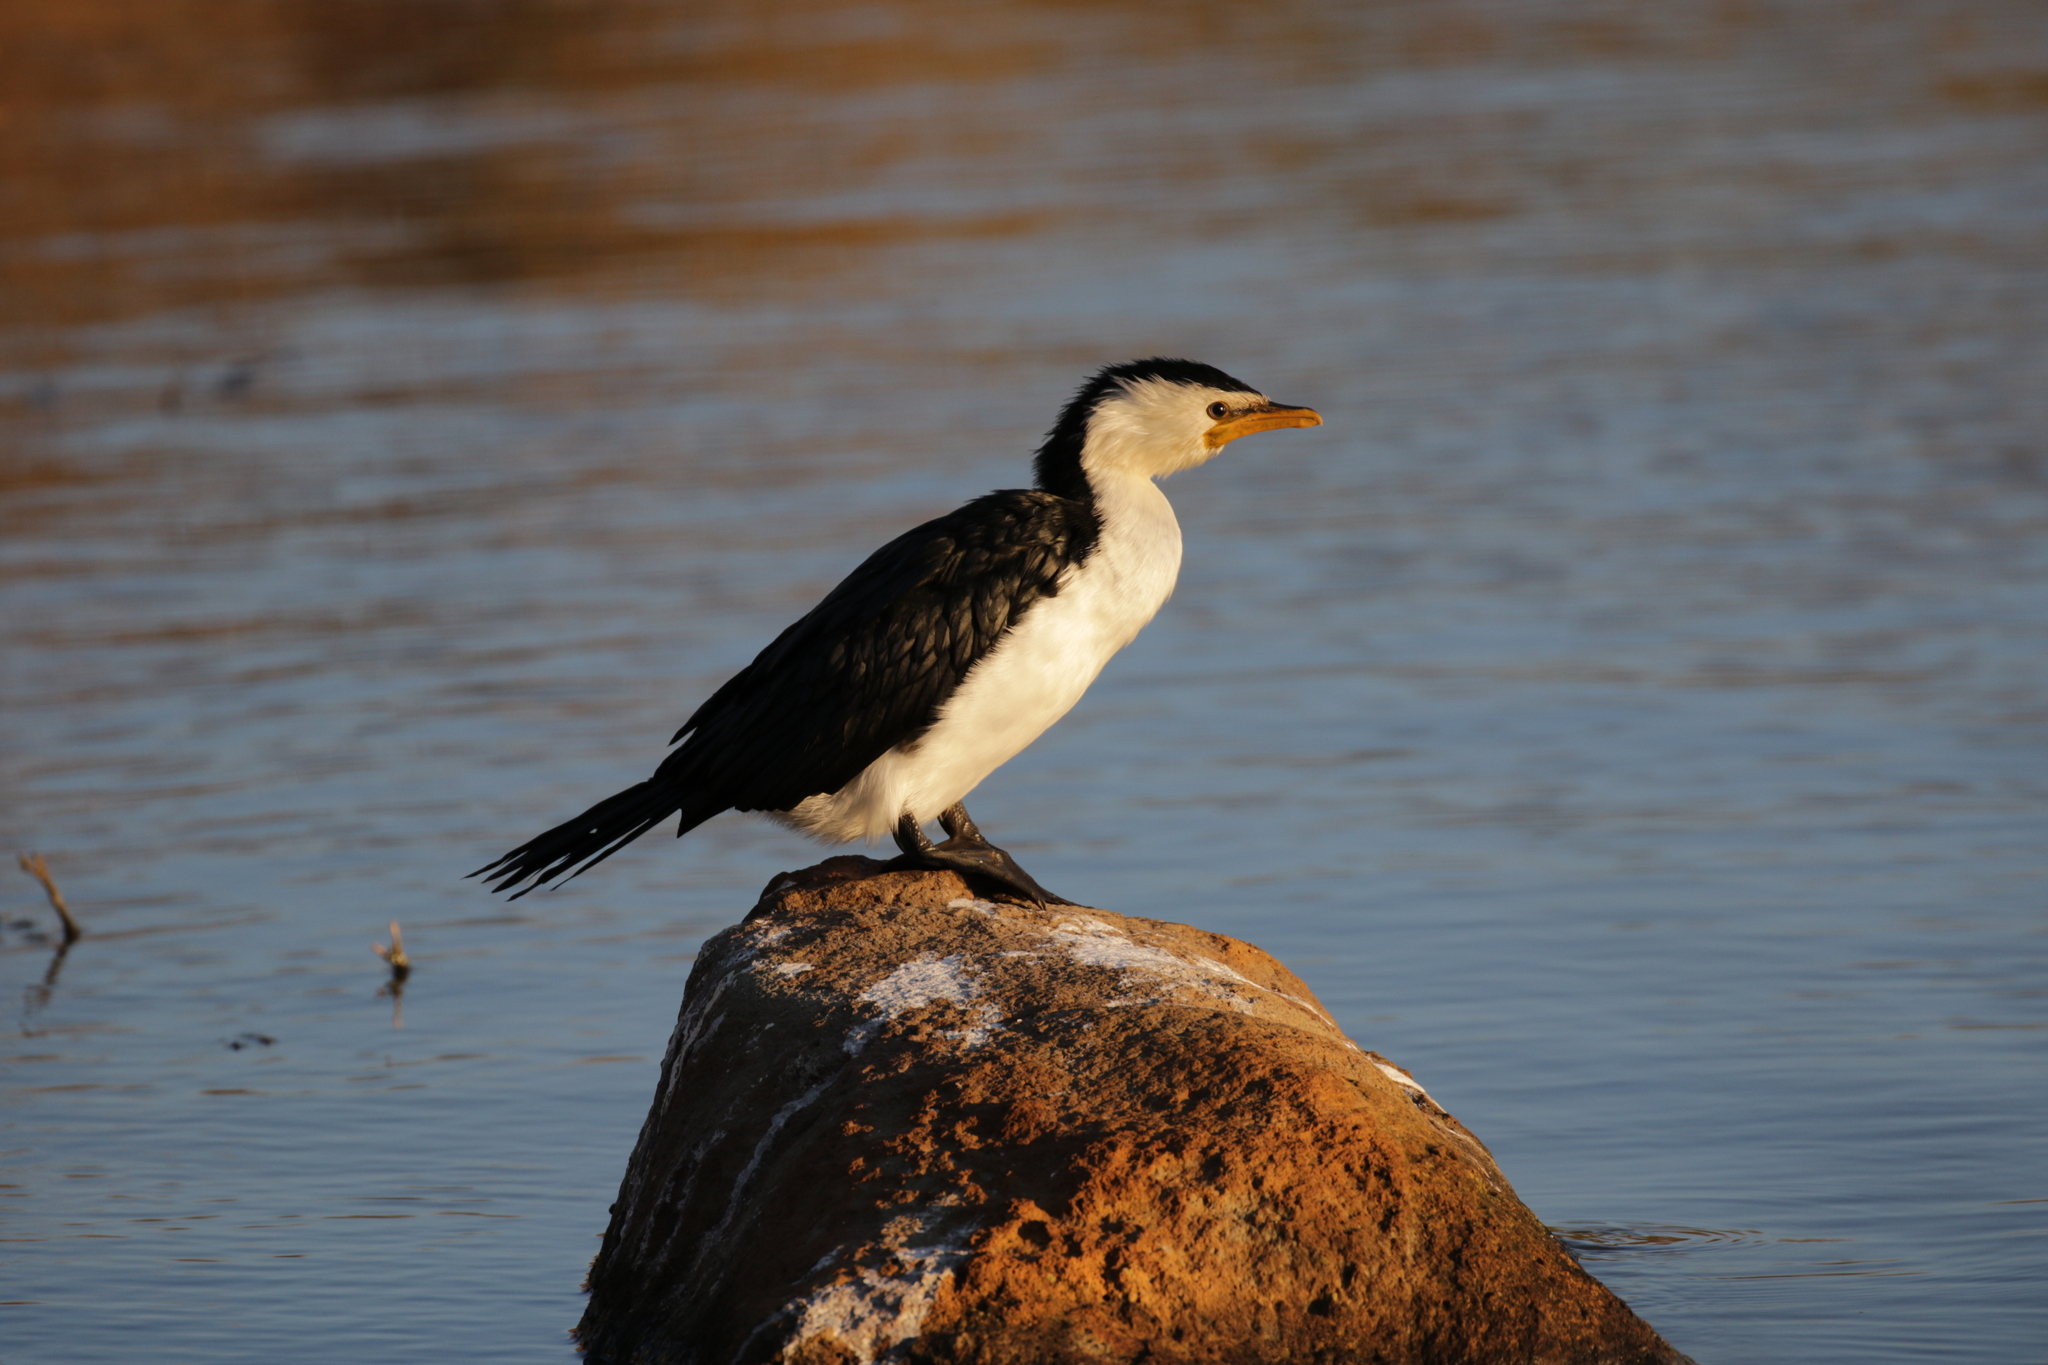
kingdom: Animalia
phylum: Chordata
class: Aves
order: Suliformes
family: Phalacrocoracidae
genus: Microcarbo
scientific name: Microcarbo melanoleucos
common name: Little pied cormorant
